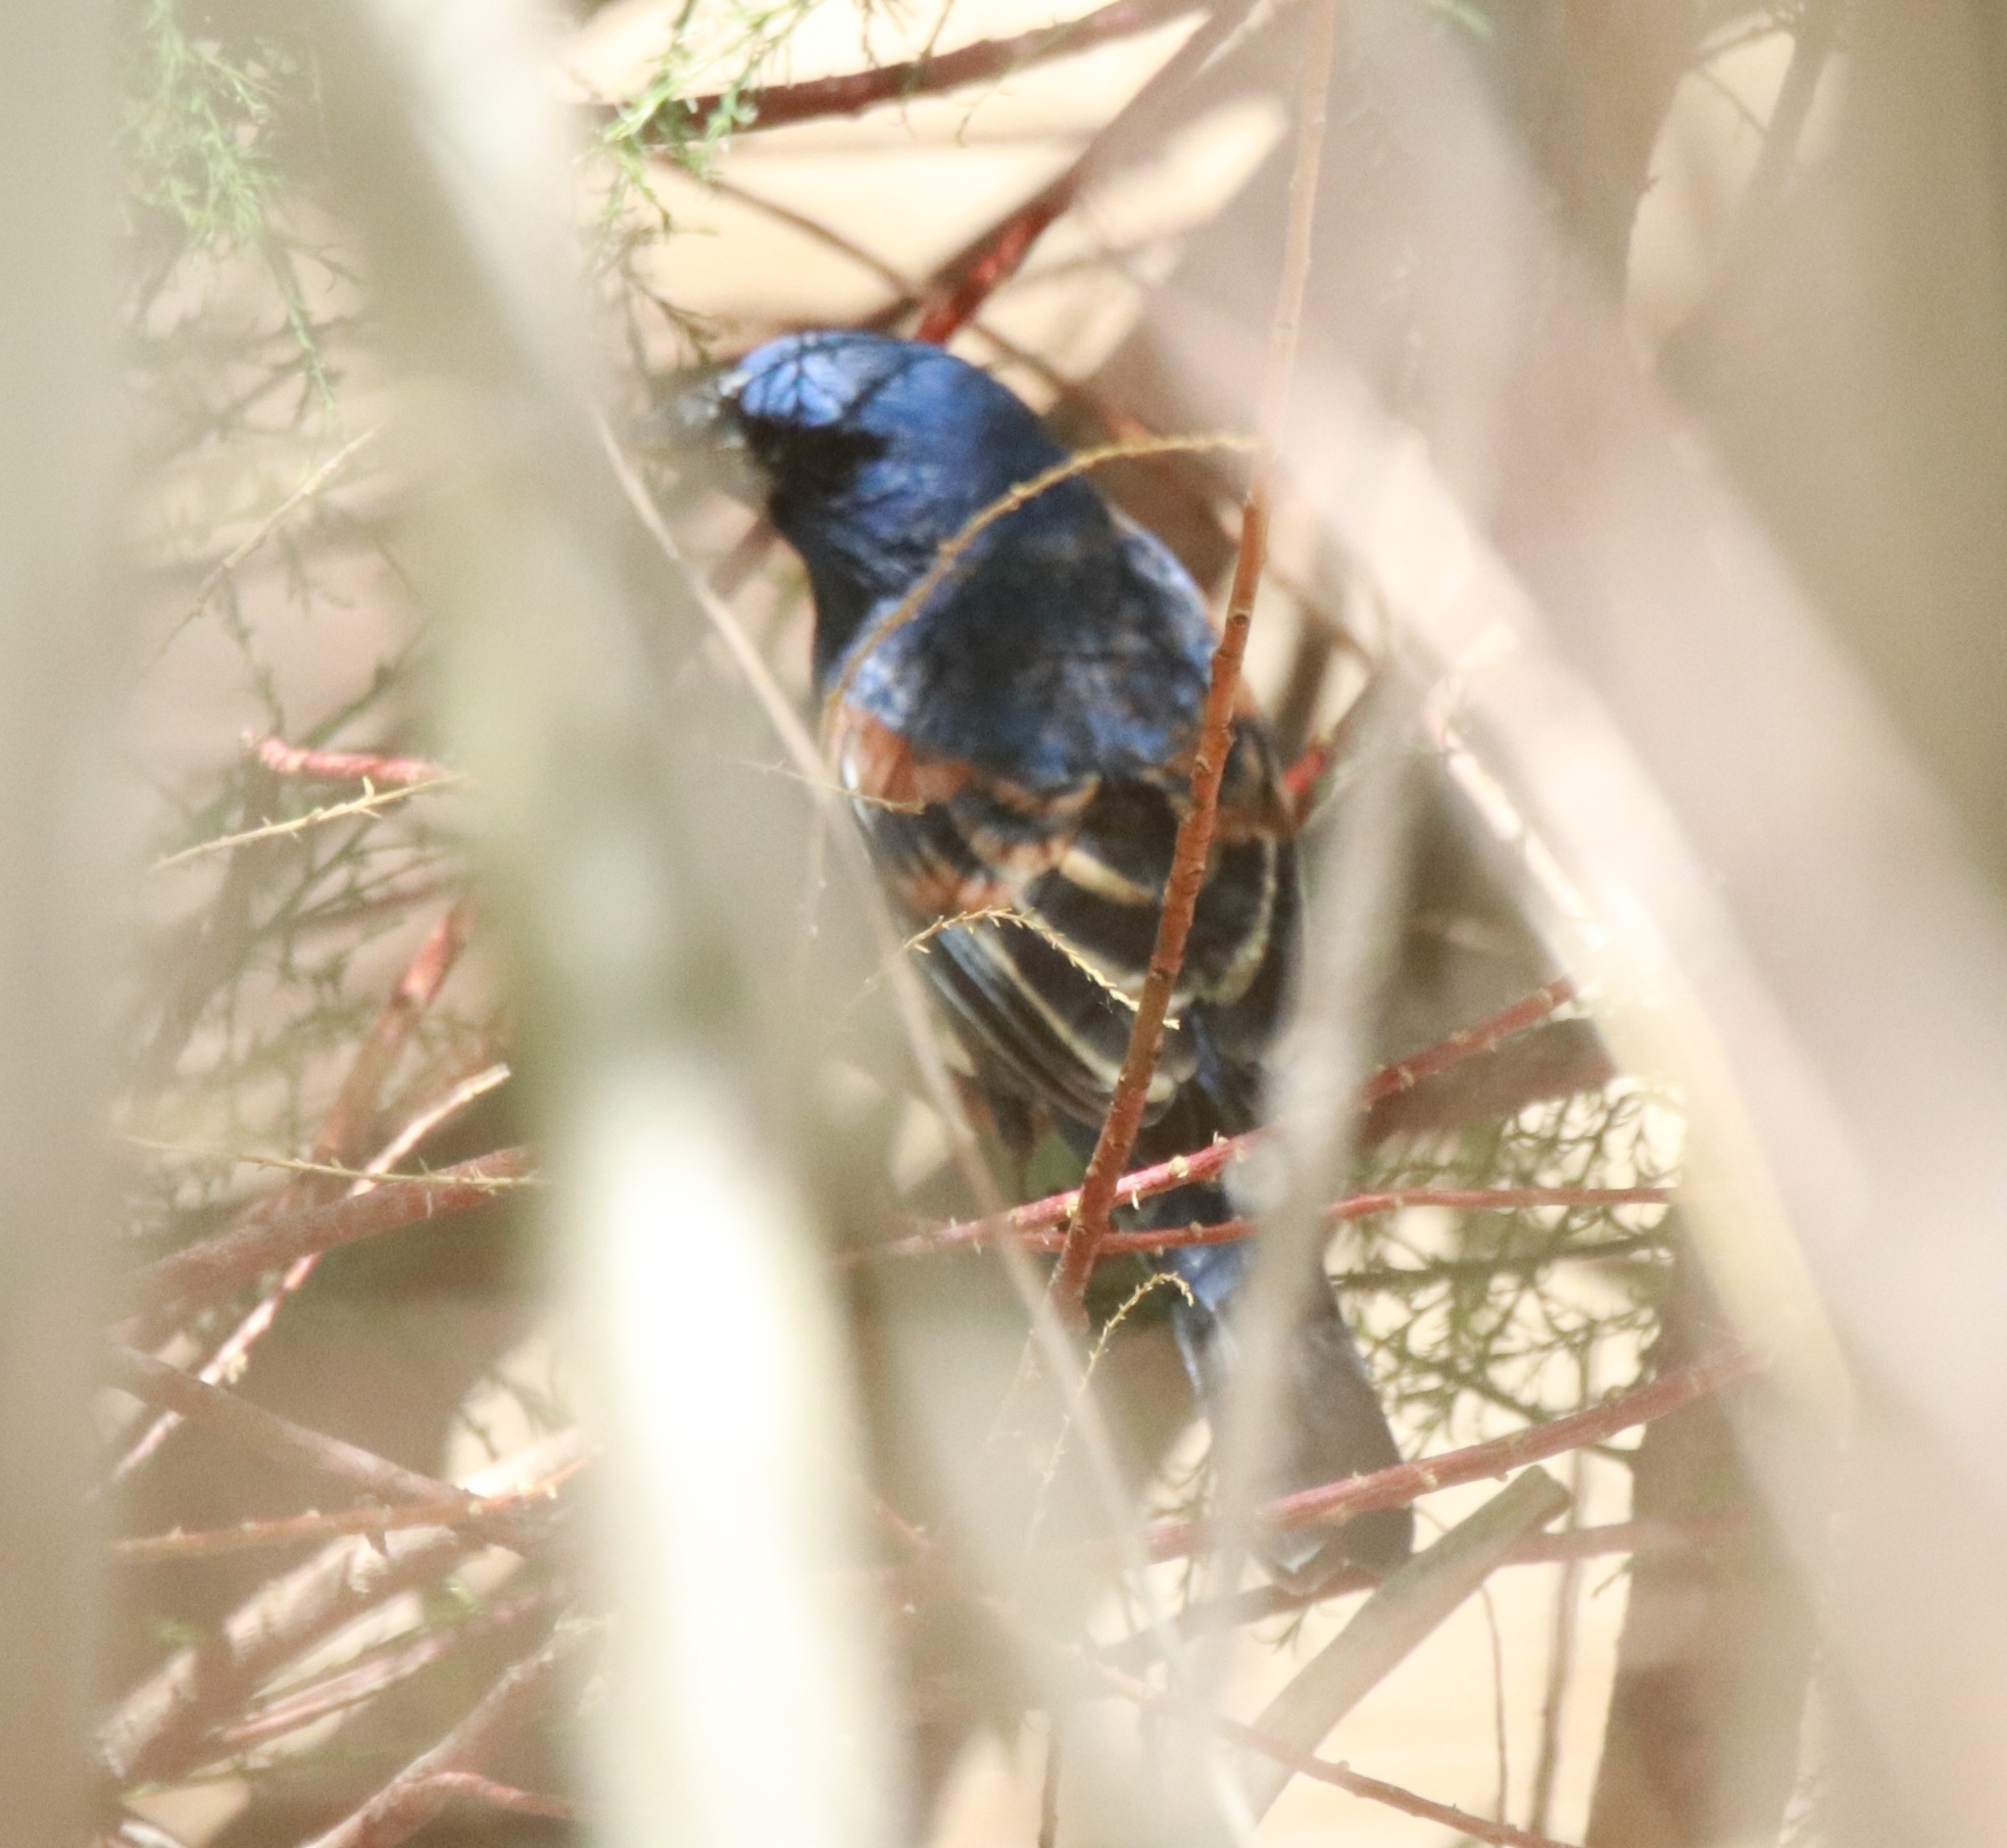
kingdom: Animalia
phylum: Chordata
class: Aves
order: Passeriformes
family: Cardinalidae
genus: Passerina
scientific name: Passerina caerulea
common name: Blue grosbeak
